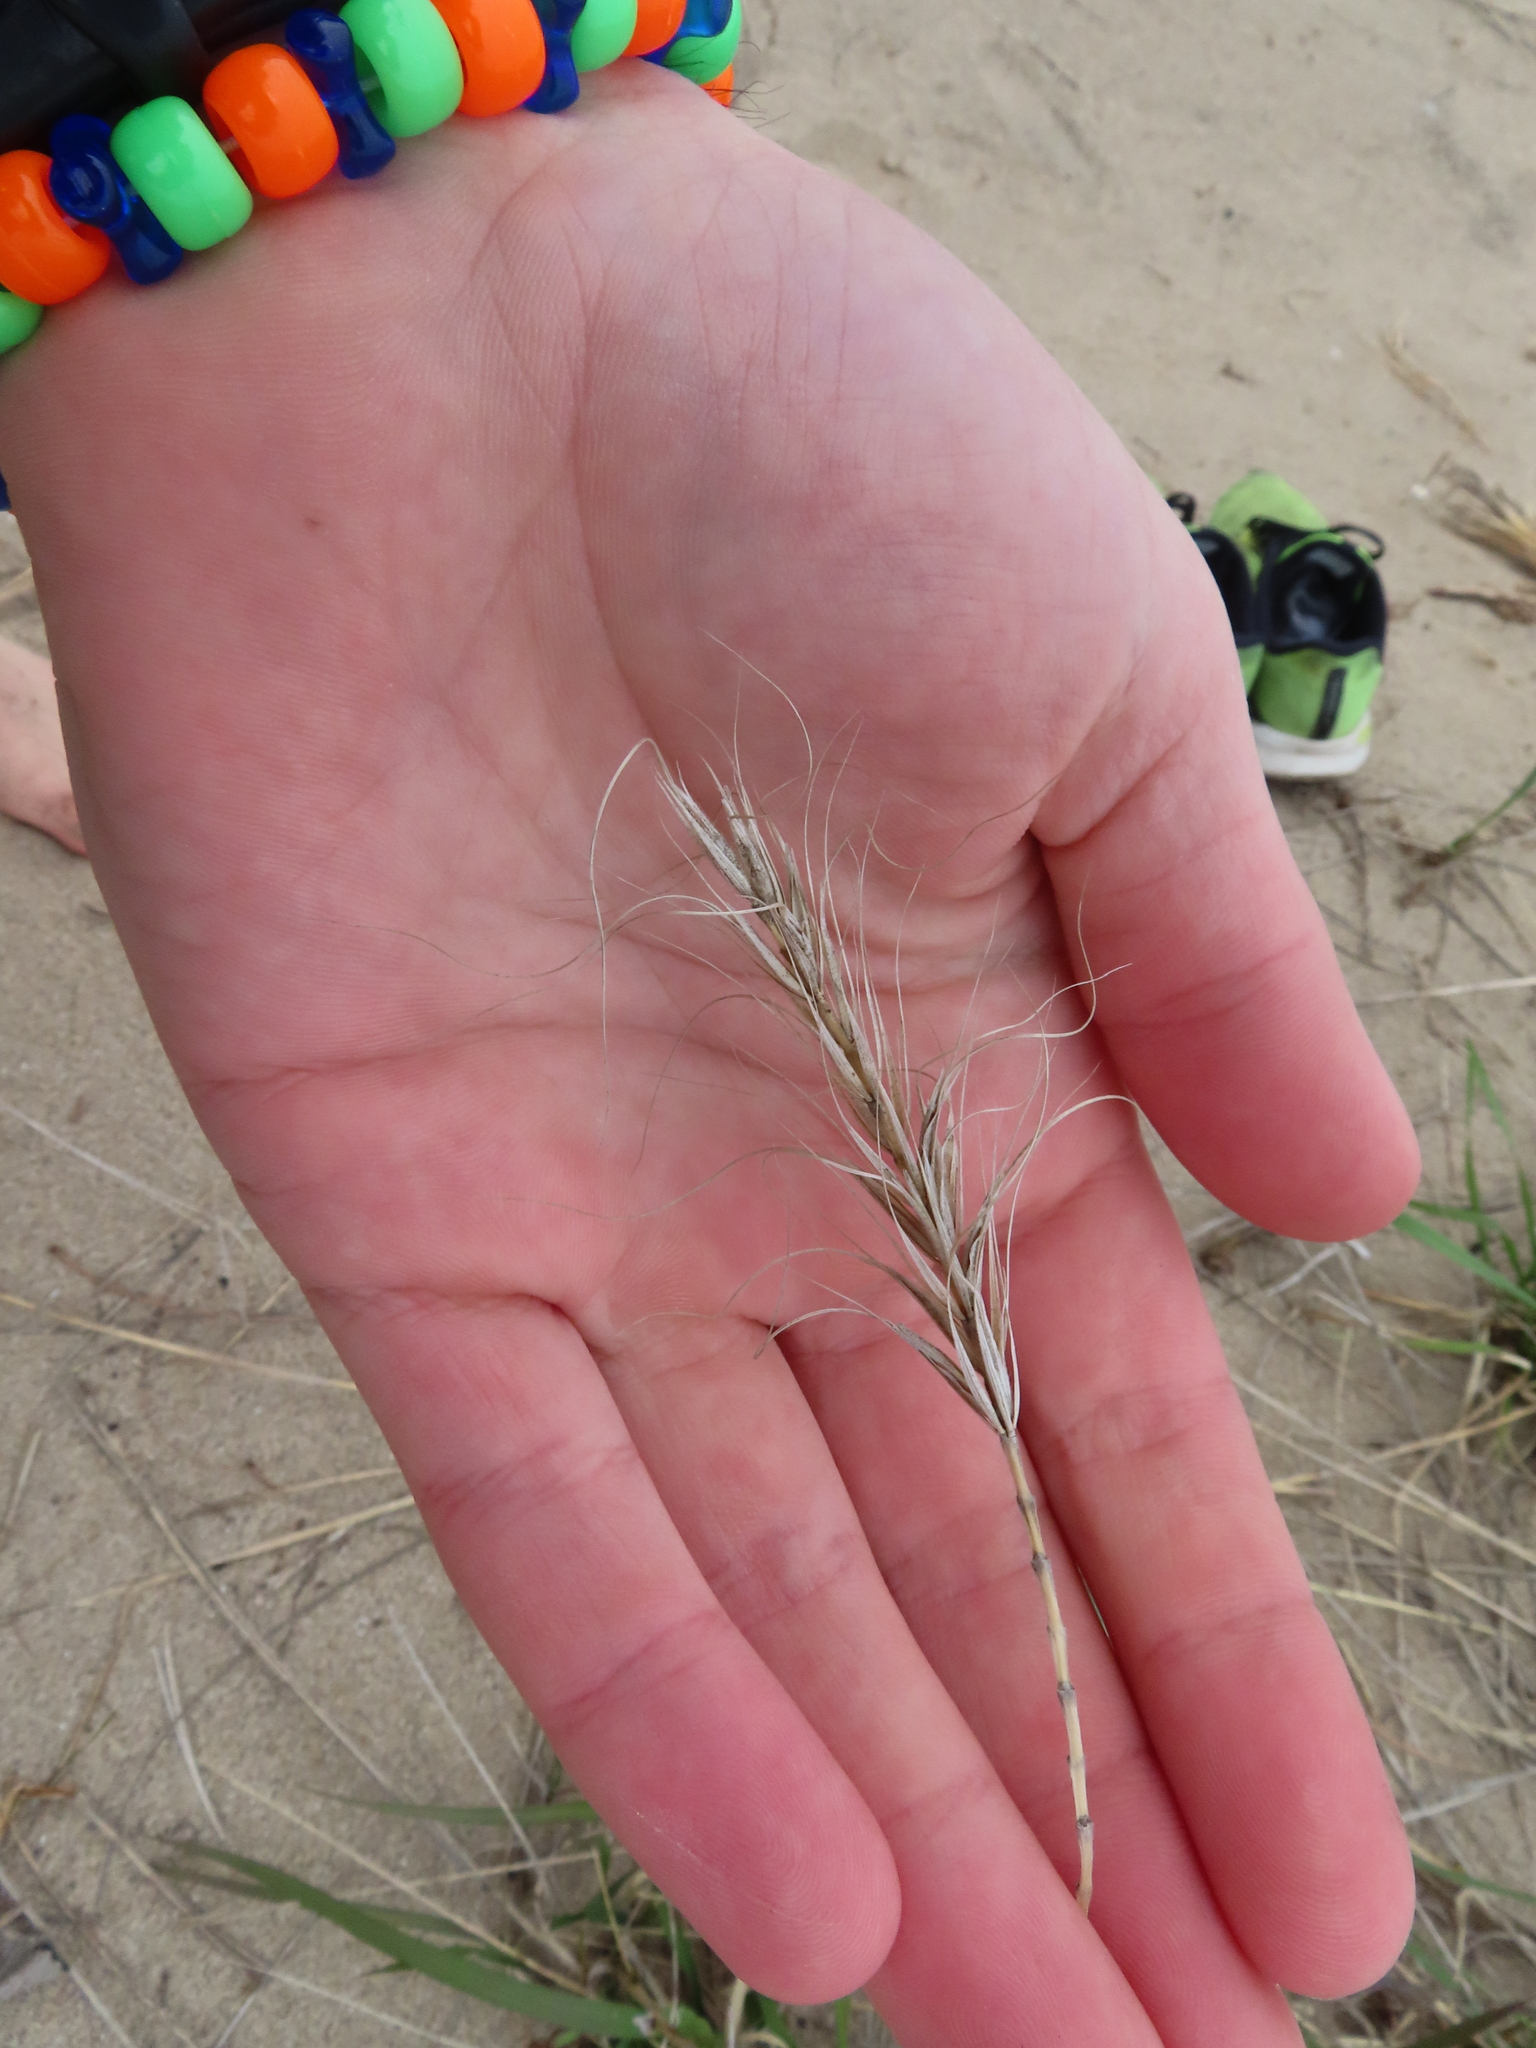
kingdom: Plantae
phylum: Tracheophyta
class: Liliopsida
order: Poales
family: Poaceae
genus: Elymus
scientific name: Elymus canadensis
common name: Canada wild rye
